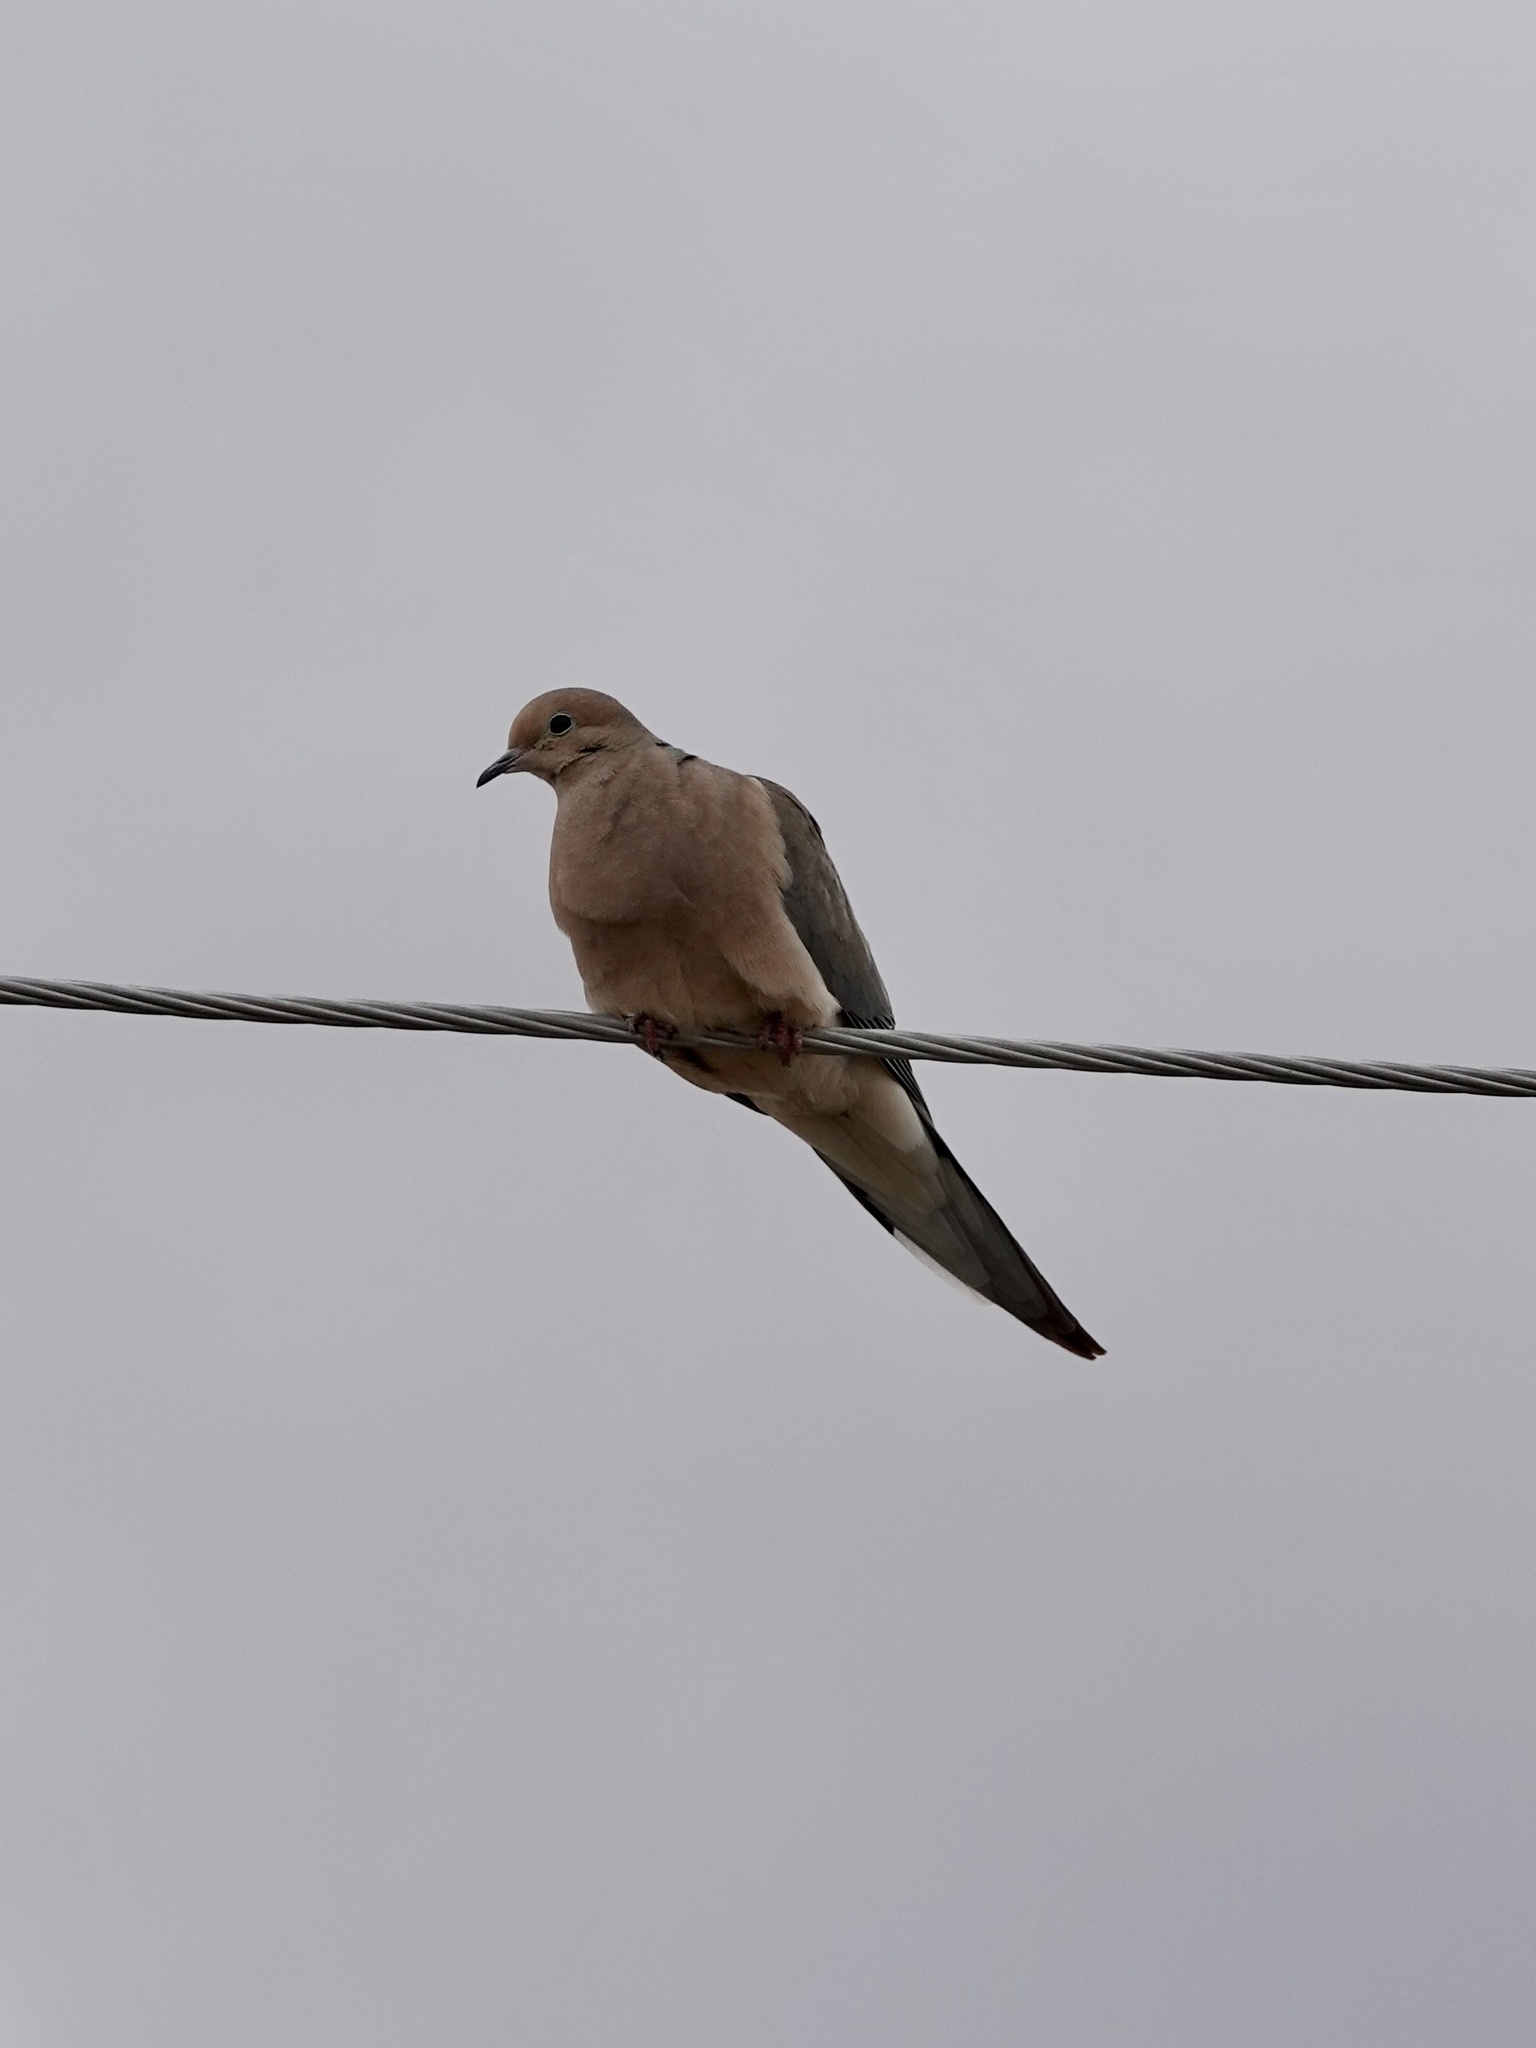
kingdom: Animalia
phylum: Chordata
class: Aves
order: Columbiformes
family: Columbidae
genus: Zenaida
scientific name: Zenaida macroura
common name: Mourning dove
